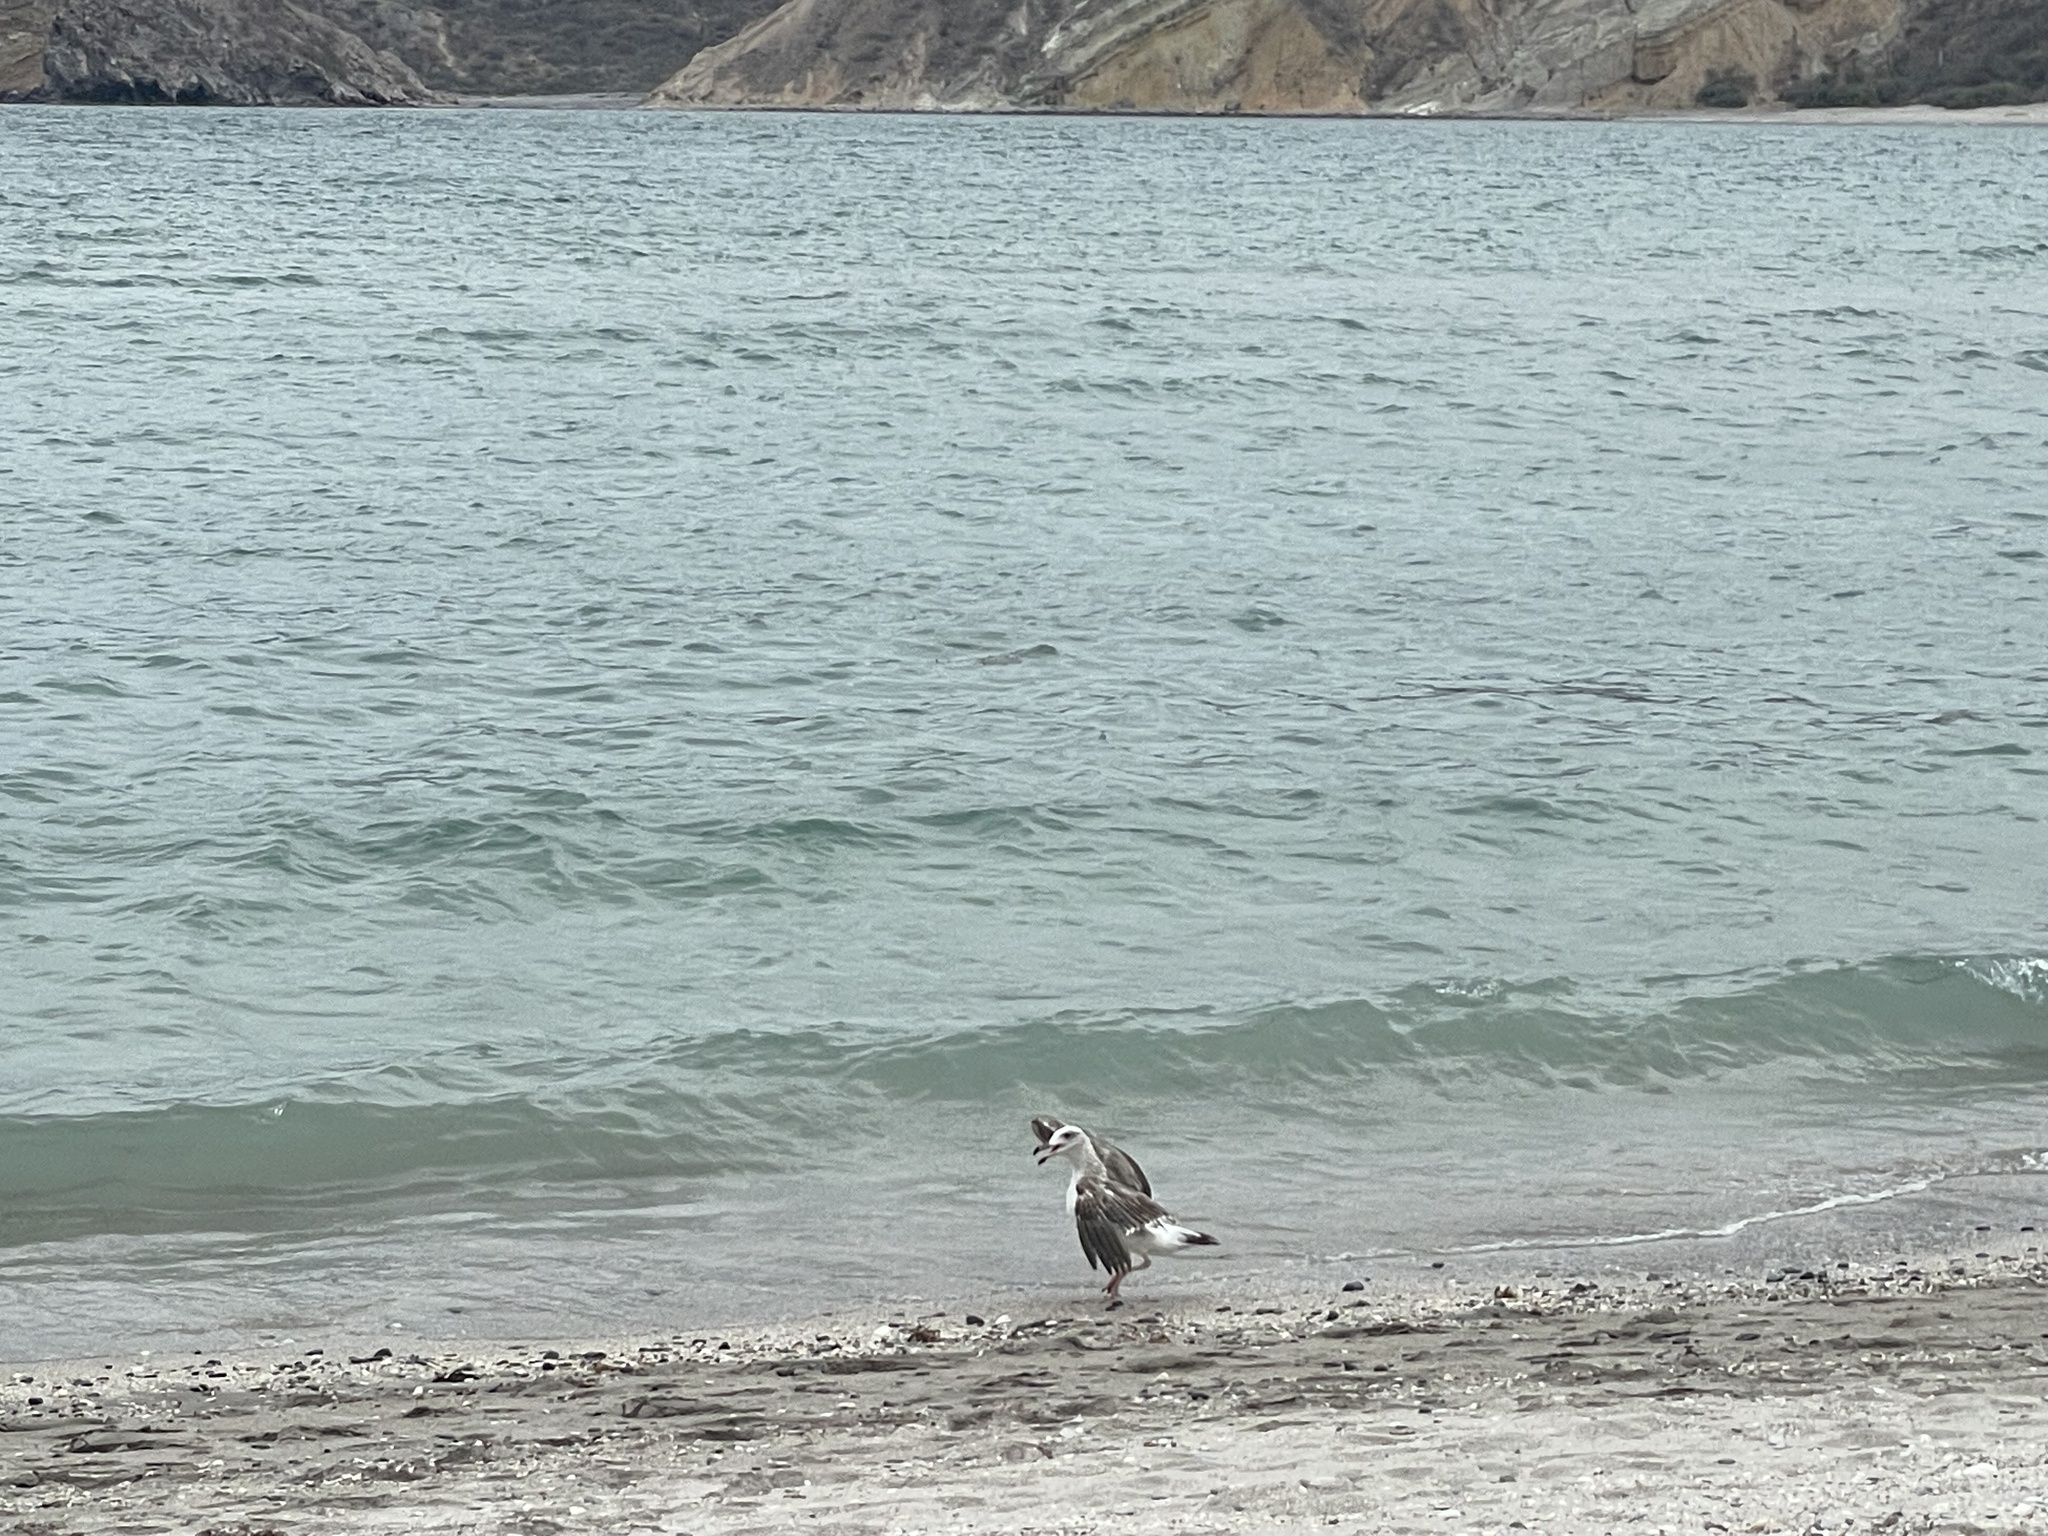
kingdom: Animalia
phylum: Chordata
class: Aves
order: Charadriiformes
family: Laridae
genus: Larus
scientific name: Larus livens
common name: Yellow-footed gull
